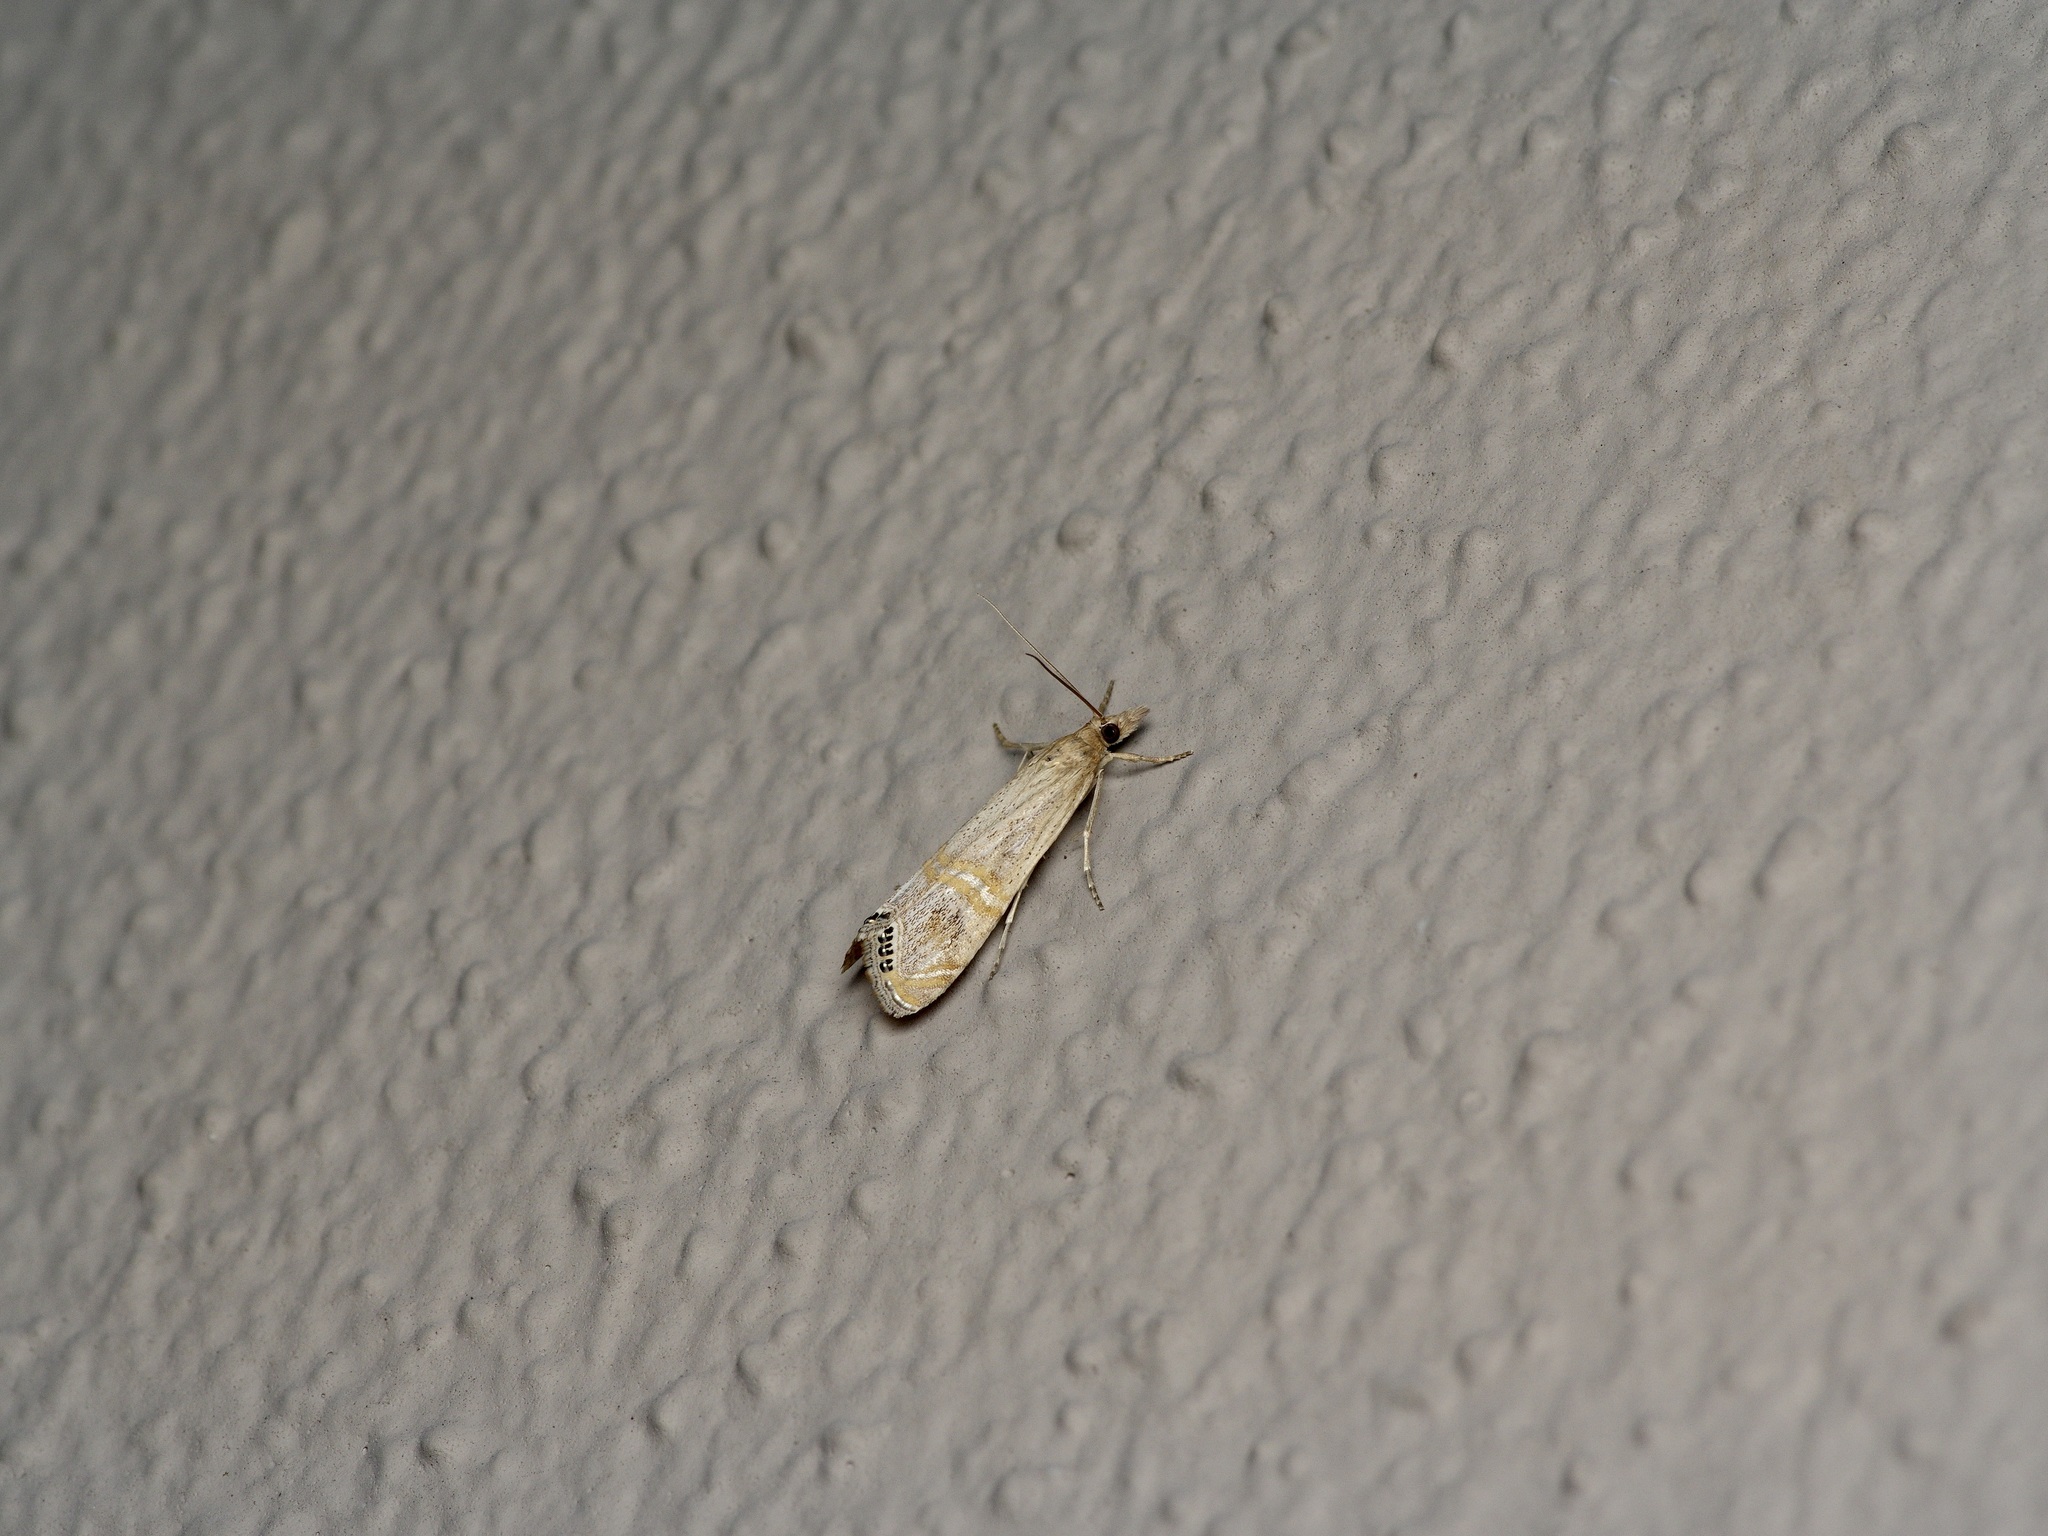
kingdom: Animalia
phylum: Arthropoda
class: Insecta
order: Lepidoptera
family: Crambidae
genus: Euchromius
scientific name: Euchromius ocellea
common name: Necklace veneer moth
